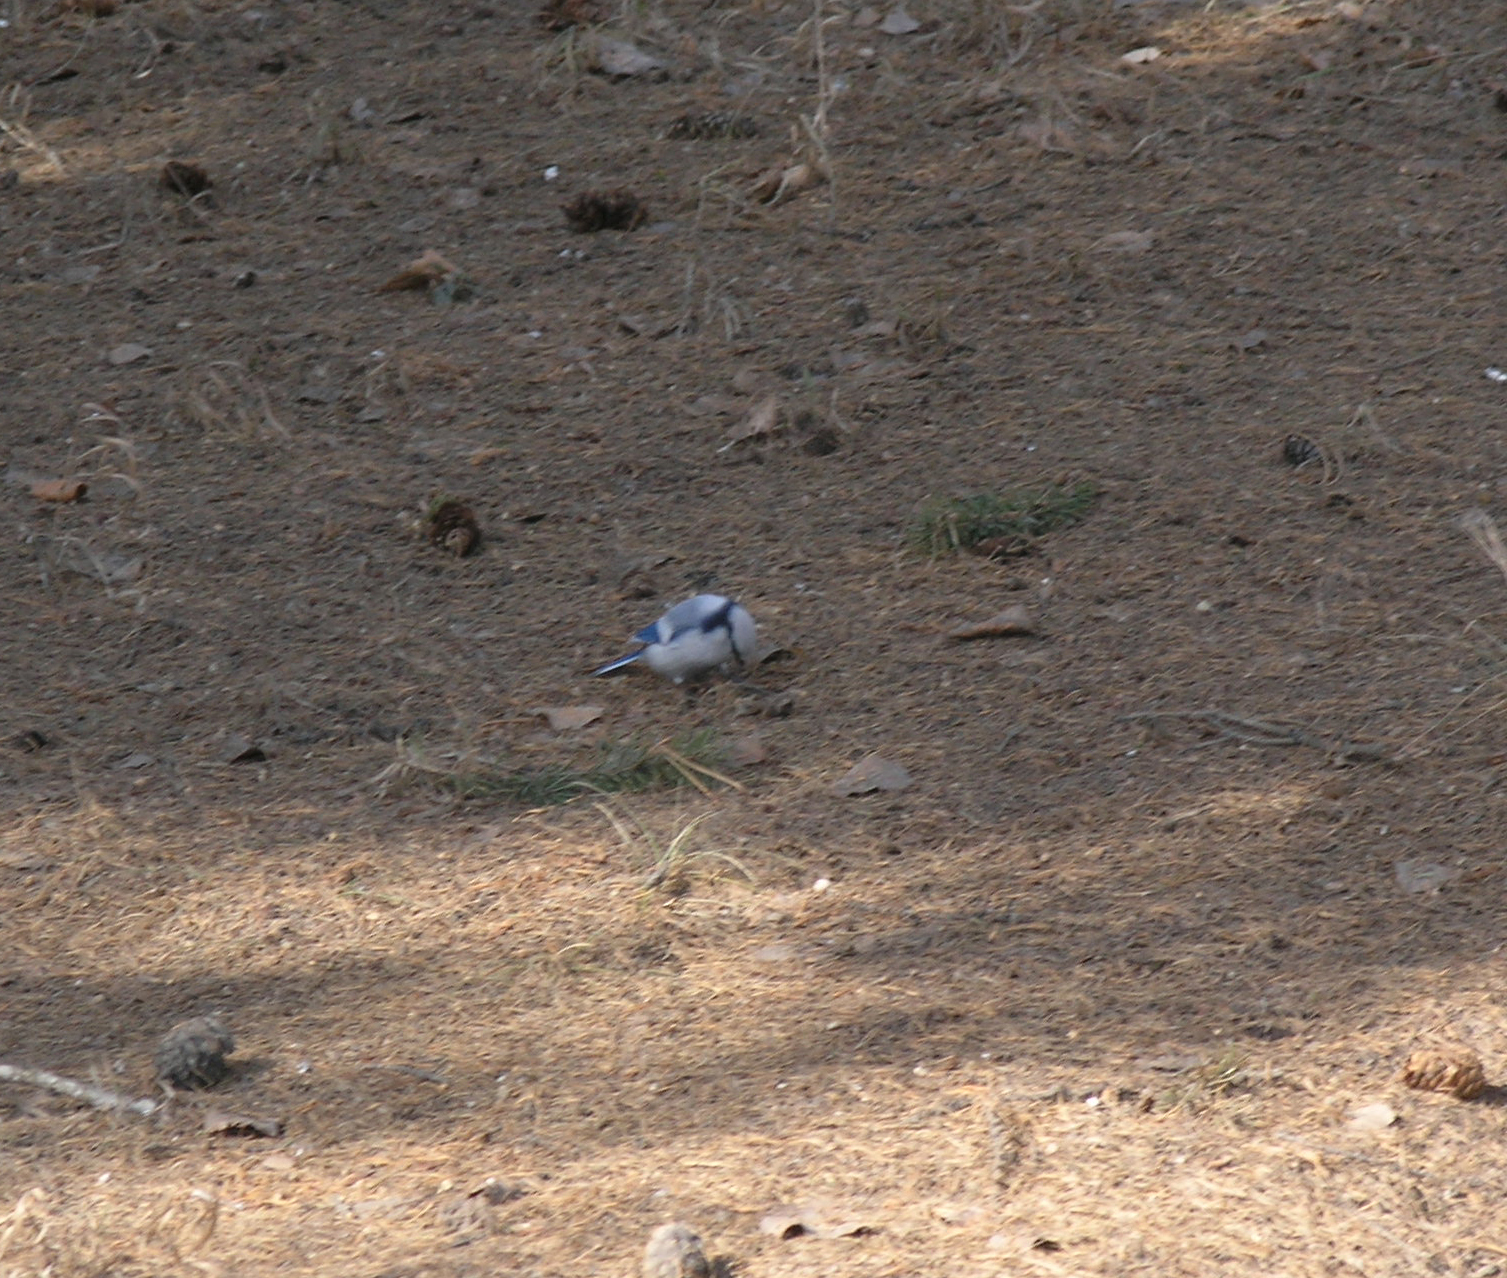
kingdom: Animalia
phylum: Chordata
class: Aves
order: Passeriformes
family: Paridae
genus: Cyanistes
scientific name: Cyanistes cyanus
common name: Azure tit
